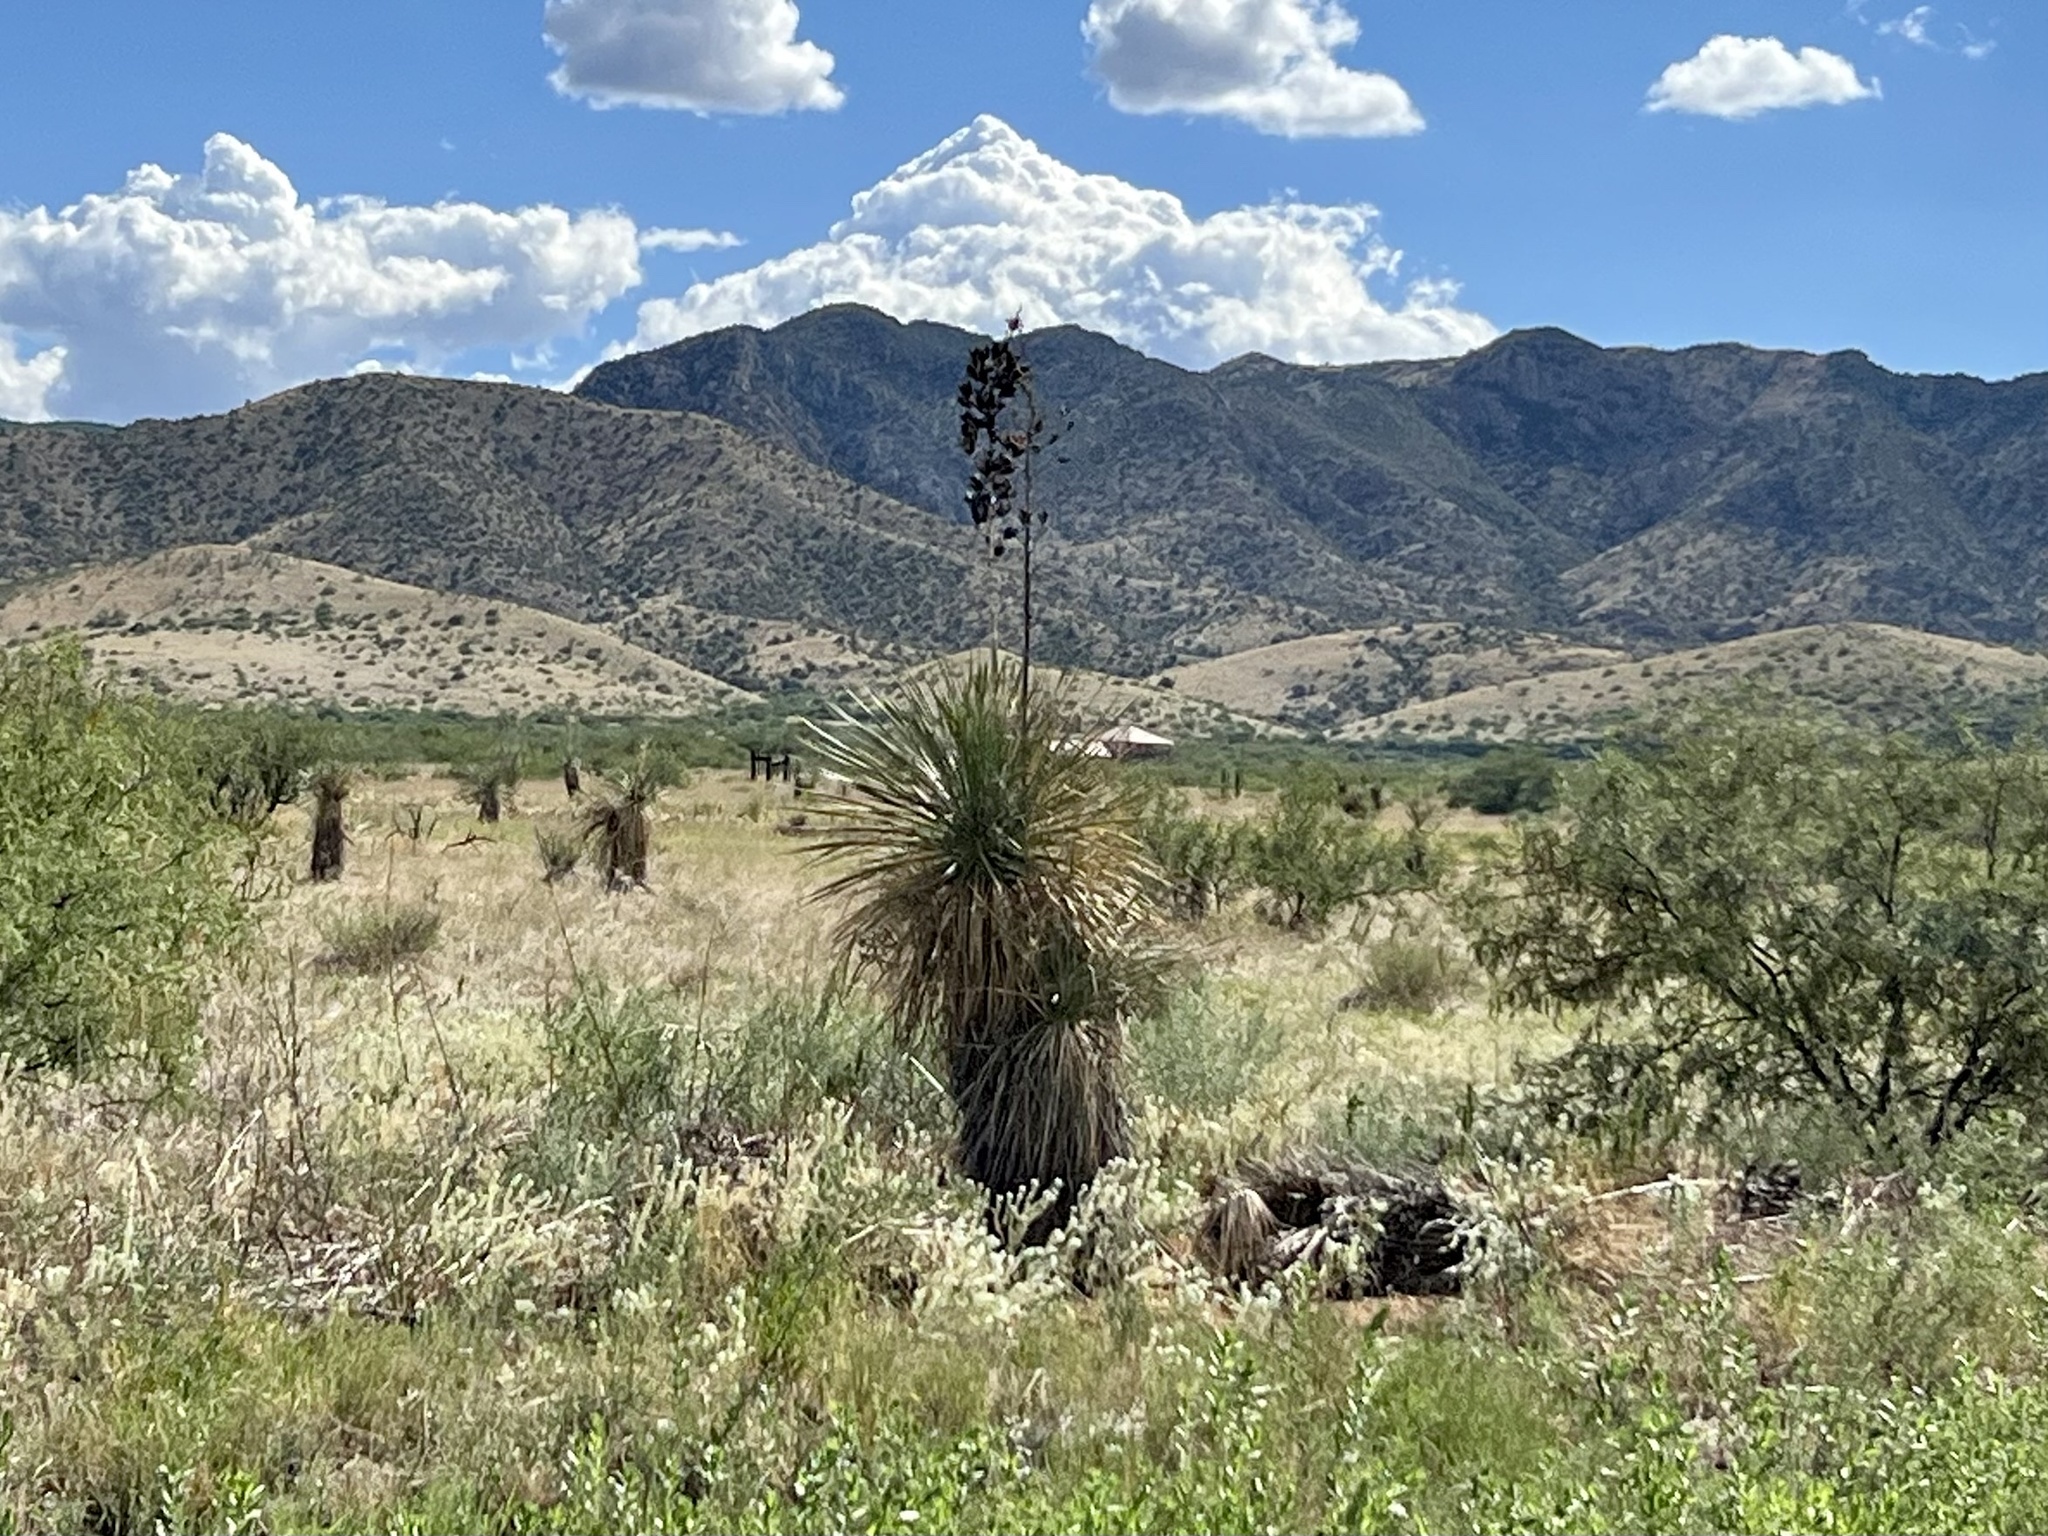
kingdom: Plantae
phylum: Tracheophyta
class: Liliopsida
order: Asparagales
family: Asparagaceae
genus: Yucca
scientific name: Yucca elata
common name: Palmella
